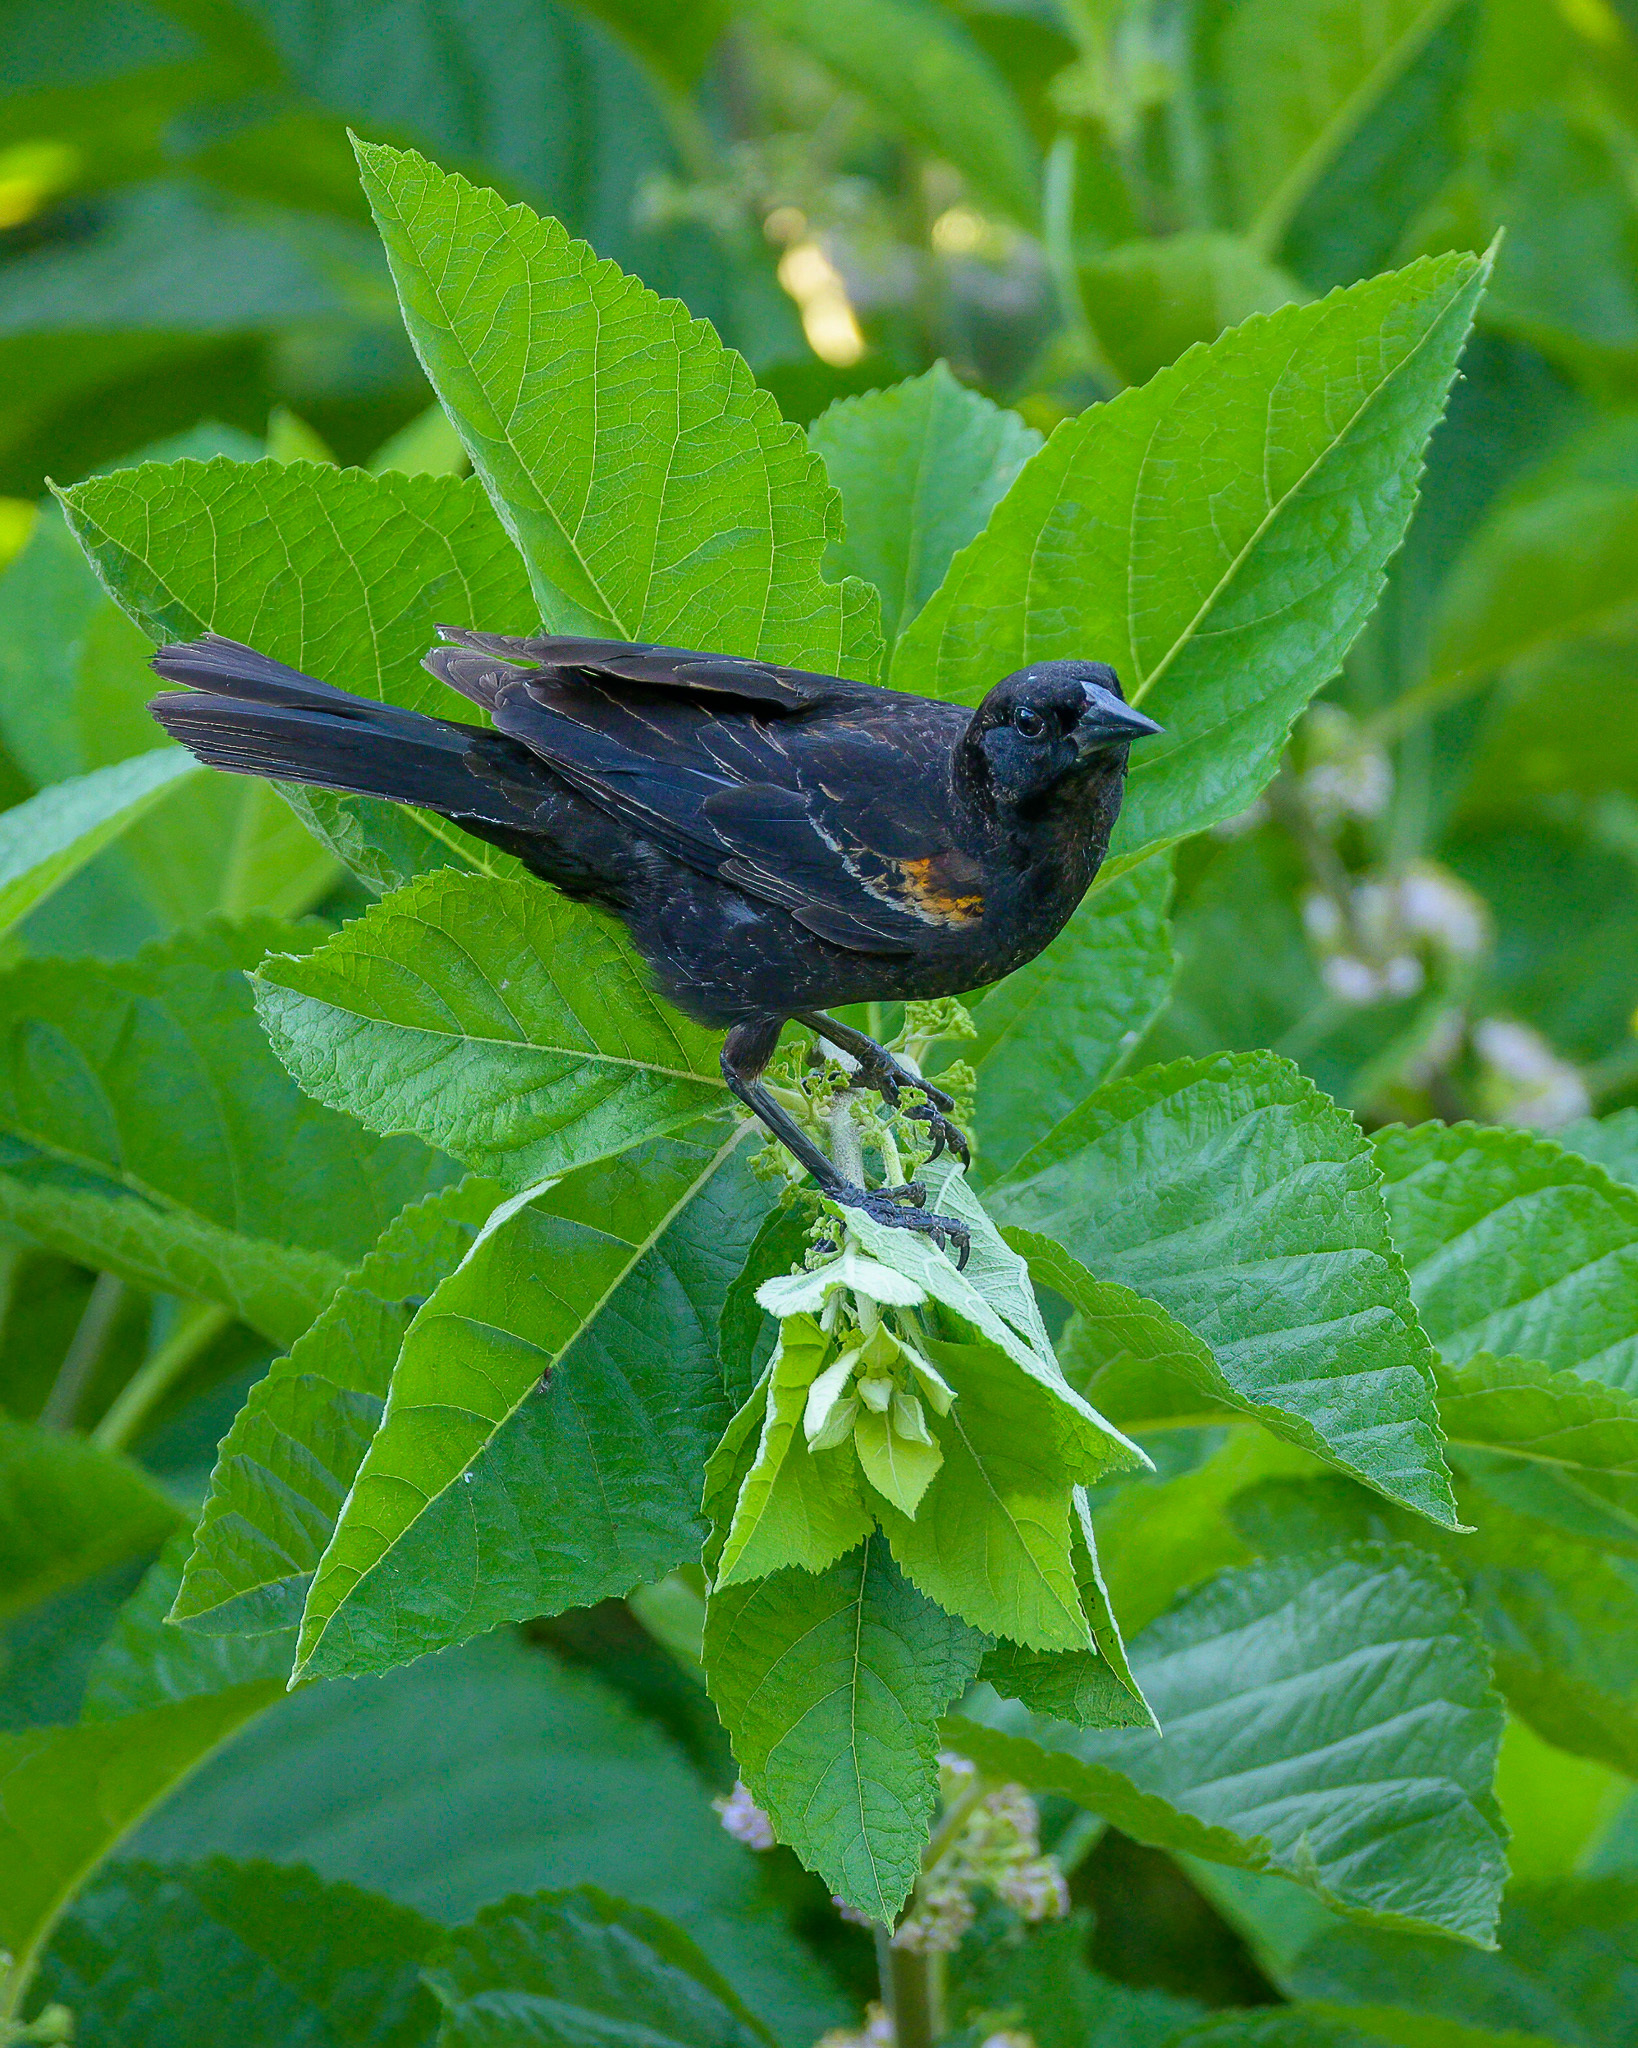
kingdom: Animalia
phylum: Chordata
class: Aves
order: Passeriformes
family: Icteridae
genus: Agelaius
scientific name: Agelaius phoeniceus
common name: Red-winged blackbird
